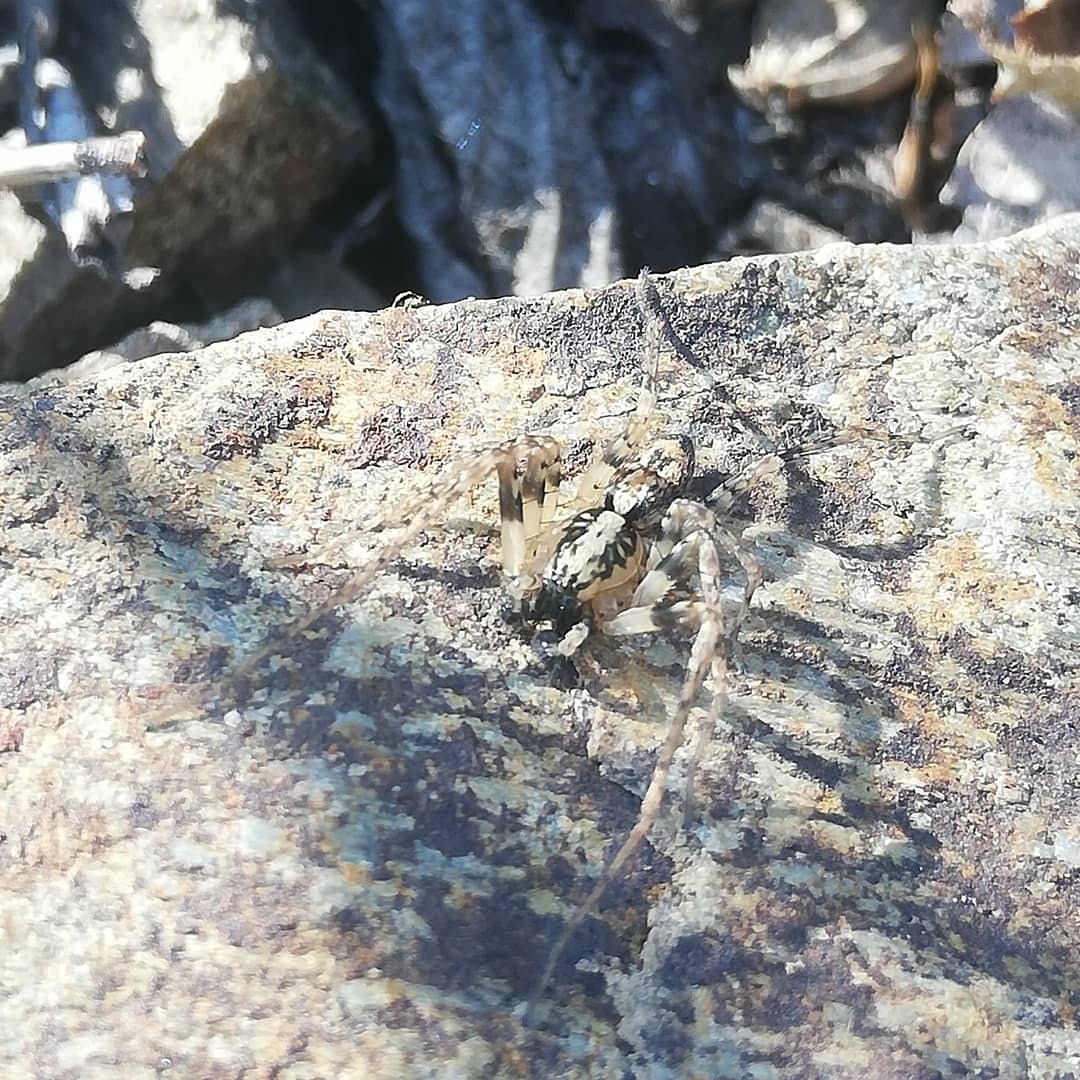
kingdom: Animalia
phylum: Arthropoda
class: Arachnida
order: Araneae
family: Anyphaenidae
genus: Anyphaena
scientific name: Anyphaena accentuata
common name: Buzzing spider
